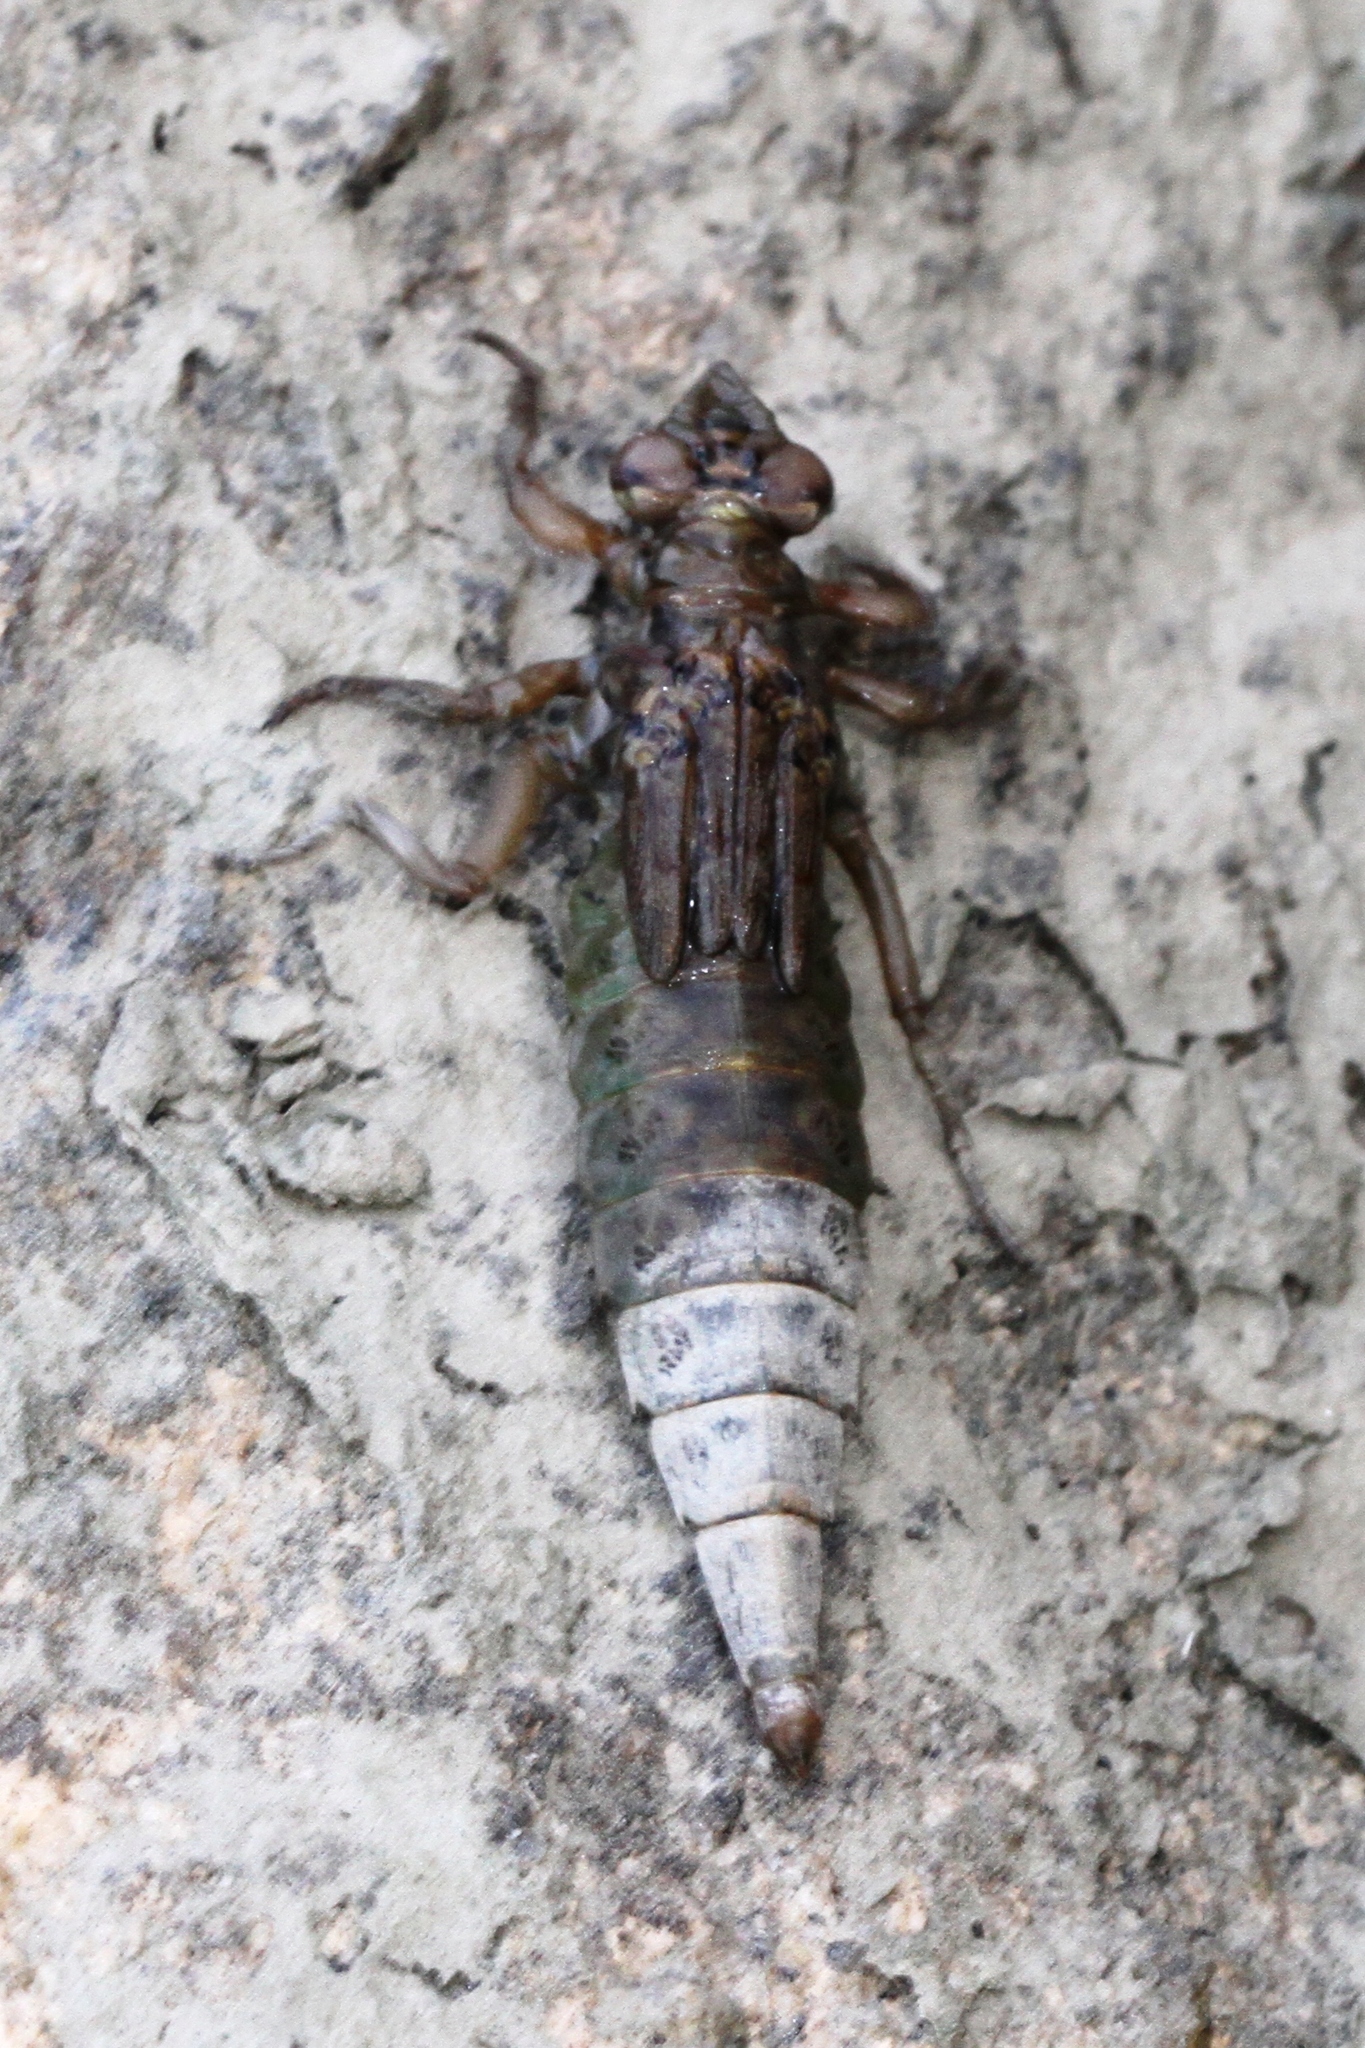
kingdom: Animalia
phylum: Arthropoda
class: Insecta
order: Odonata
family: Gomphidae
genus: Stylurus
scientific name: Stylurus notatus
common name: Elusive clubtail
